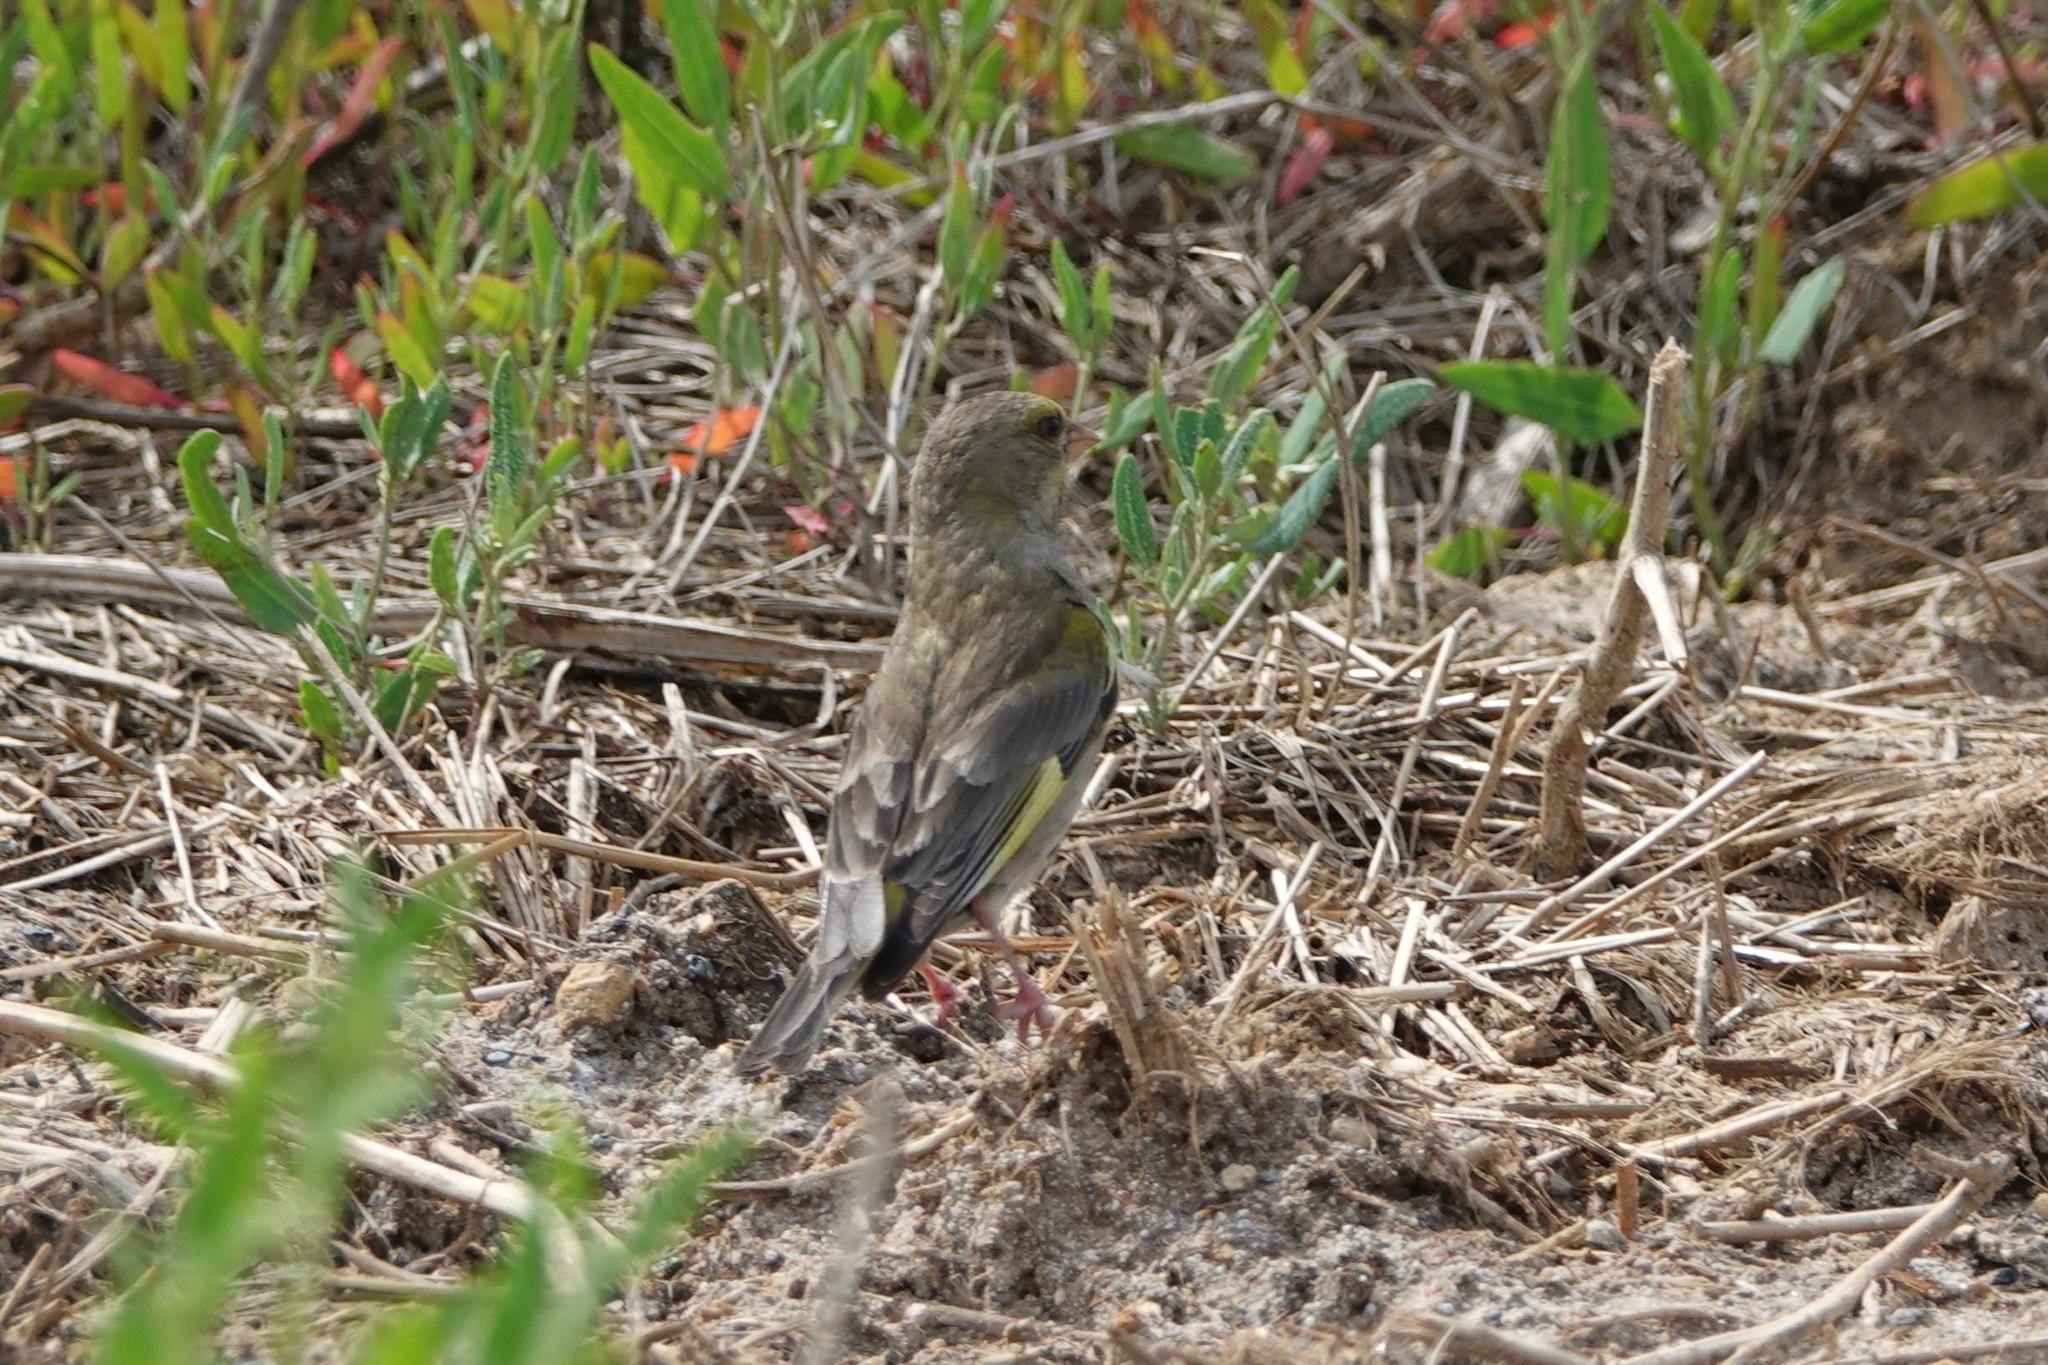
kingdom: Plantae
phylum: Tracheophyta
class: Liliopsida
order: Poales
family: Poaceae
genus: Chloris
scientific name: Chloris chloris
